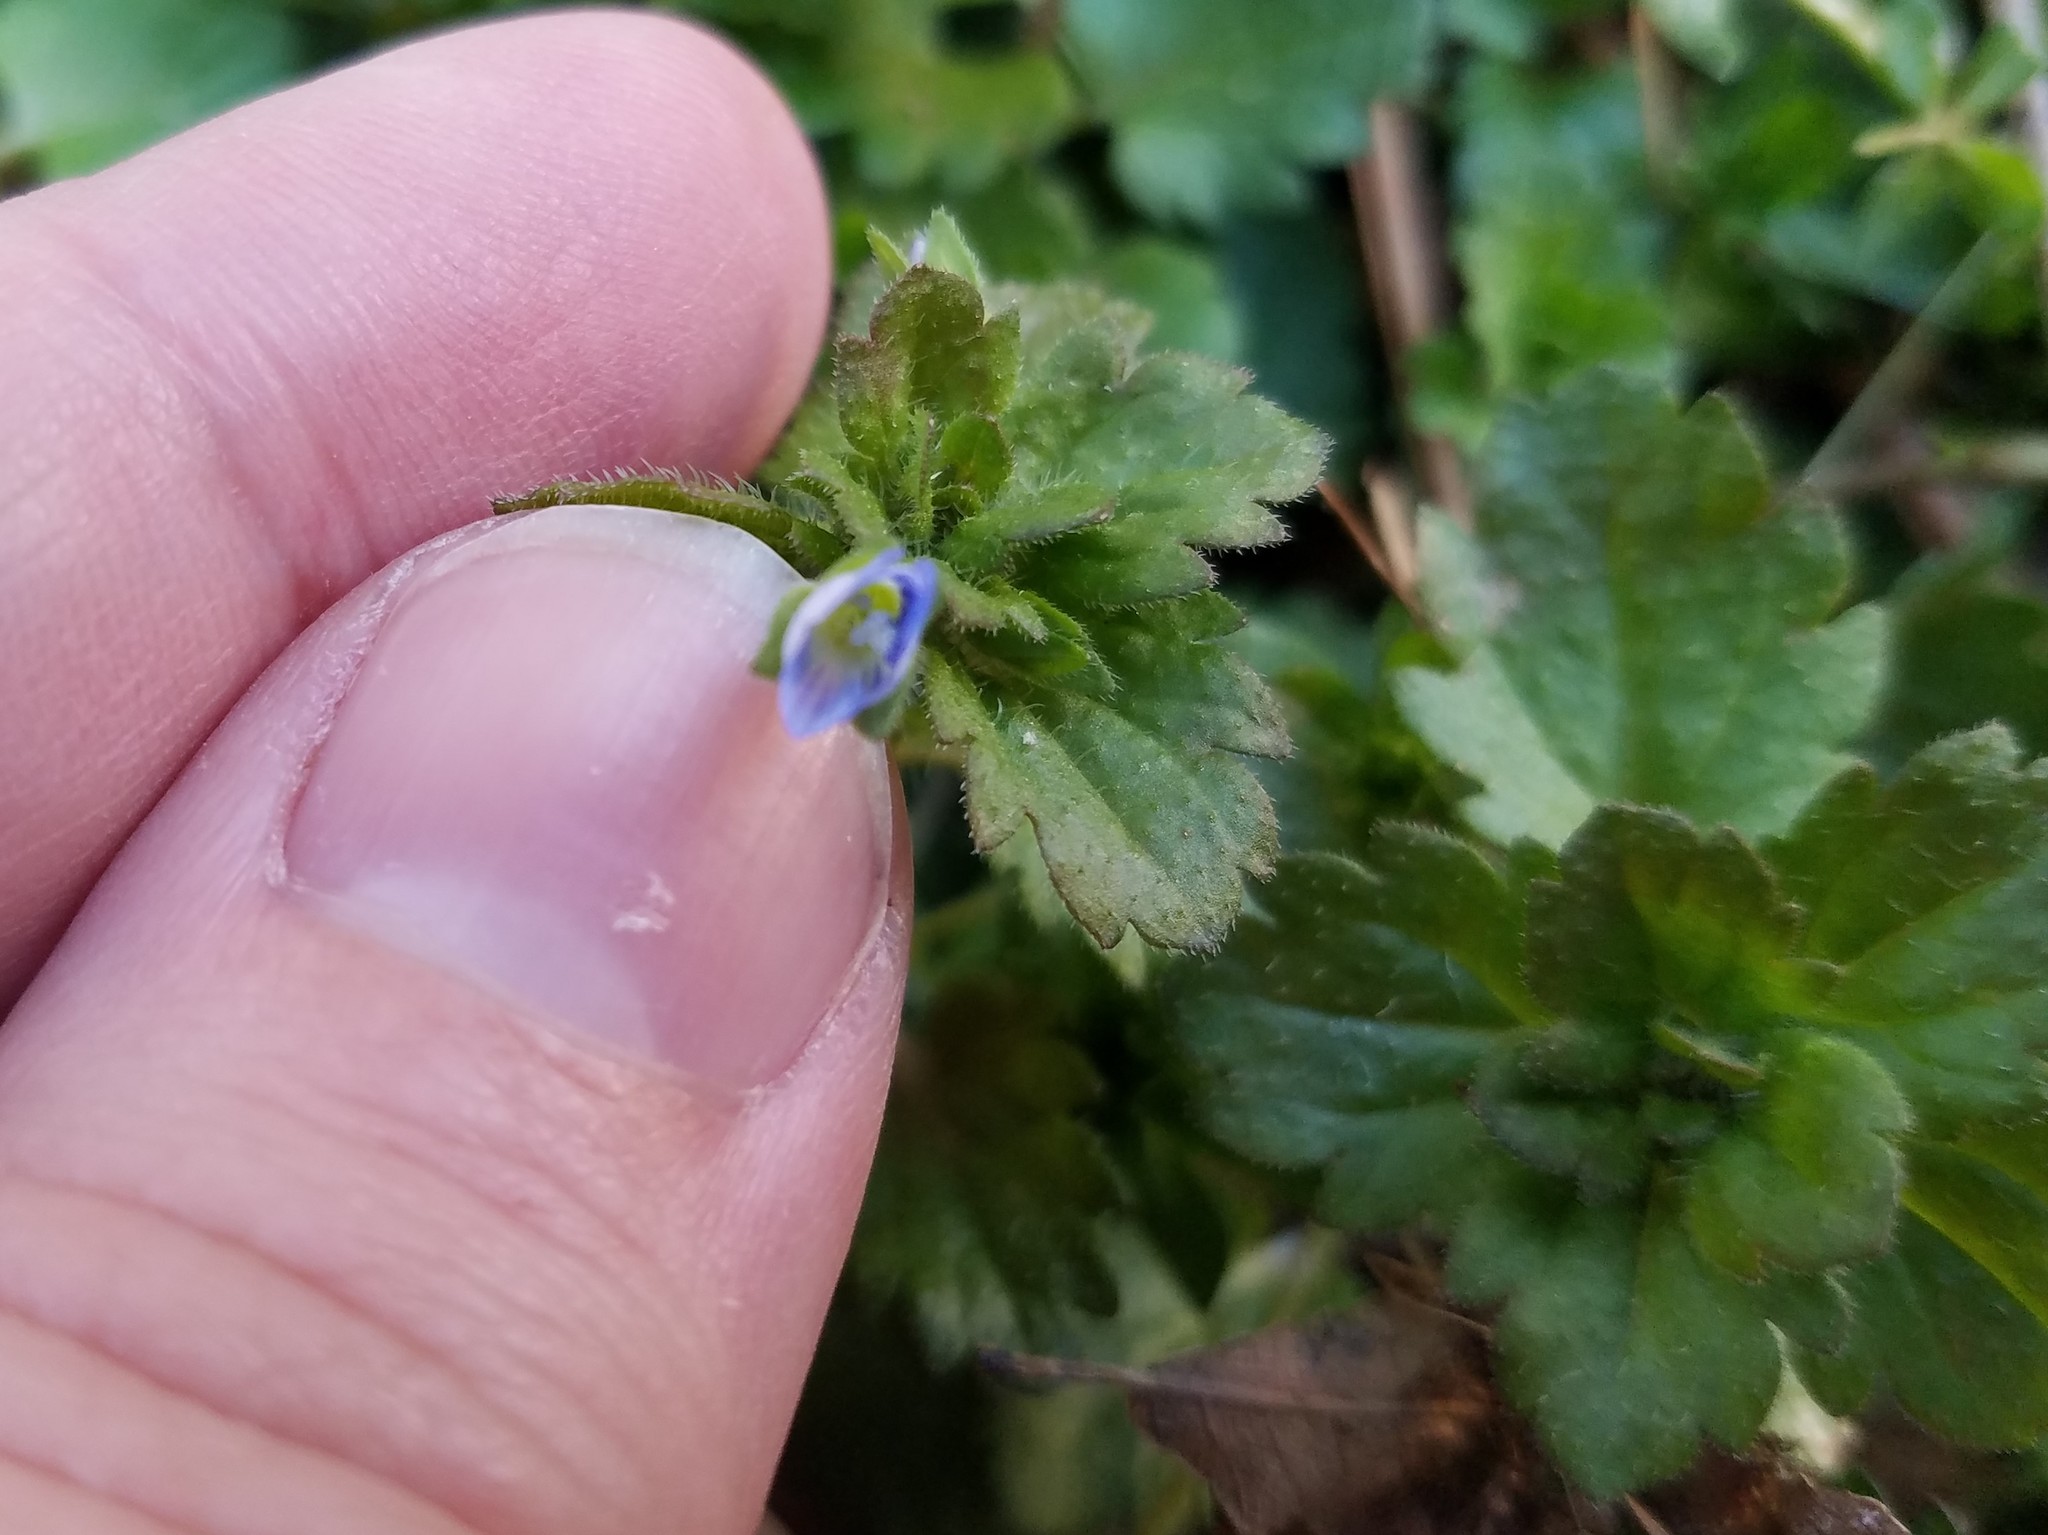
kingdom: Plantae
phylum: Tracheophyta
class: Magnoliopsida
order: Lamiales
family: Plantaginaceae
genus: Veronica
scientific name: Veronica persica
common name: Common field-speedwell
